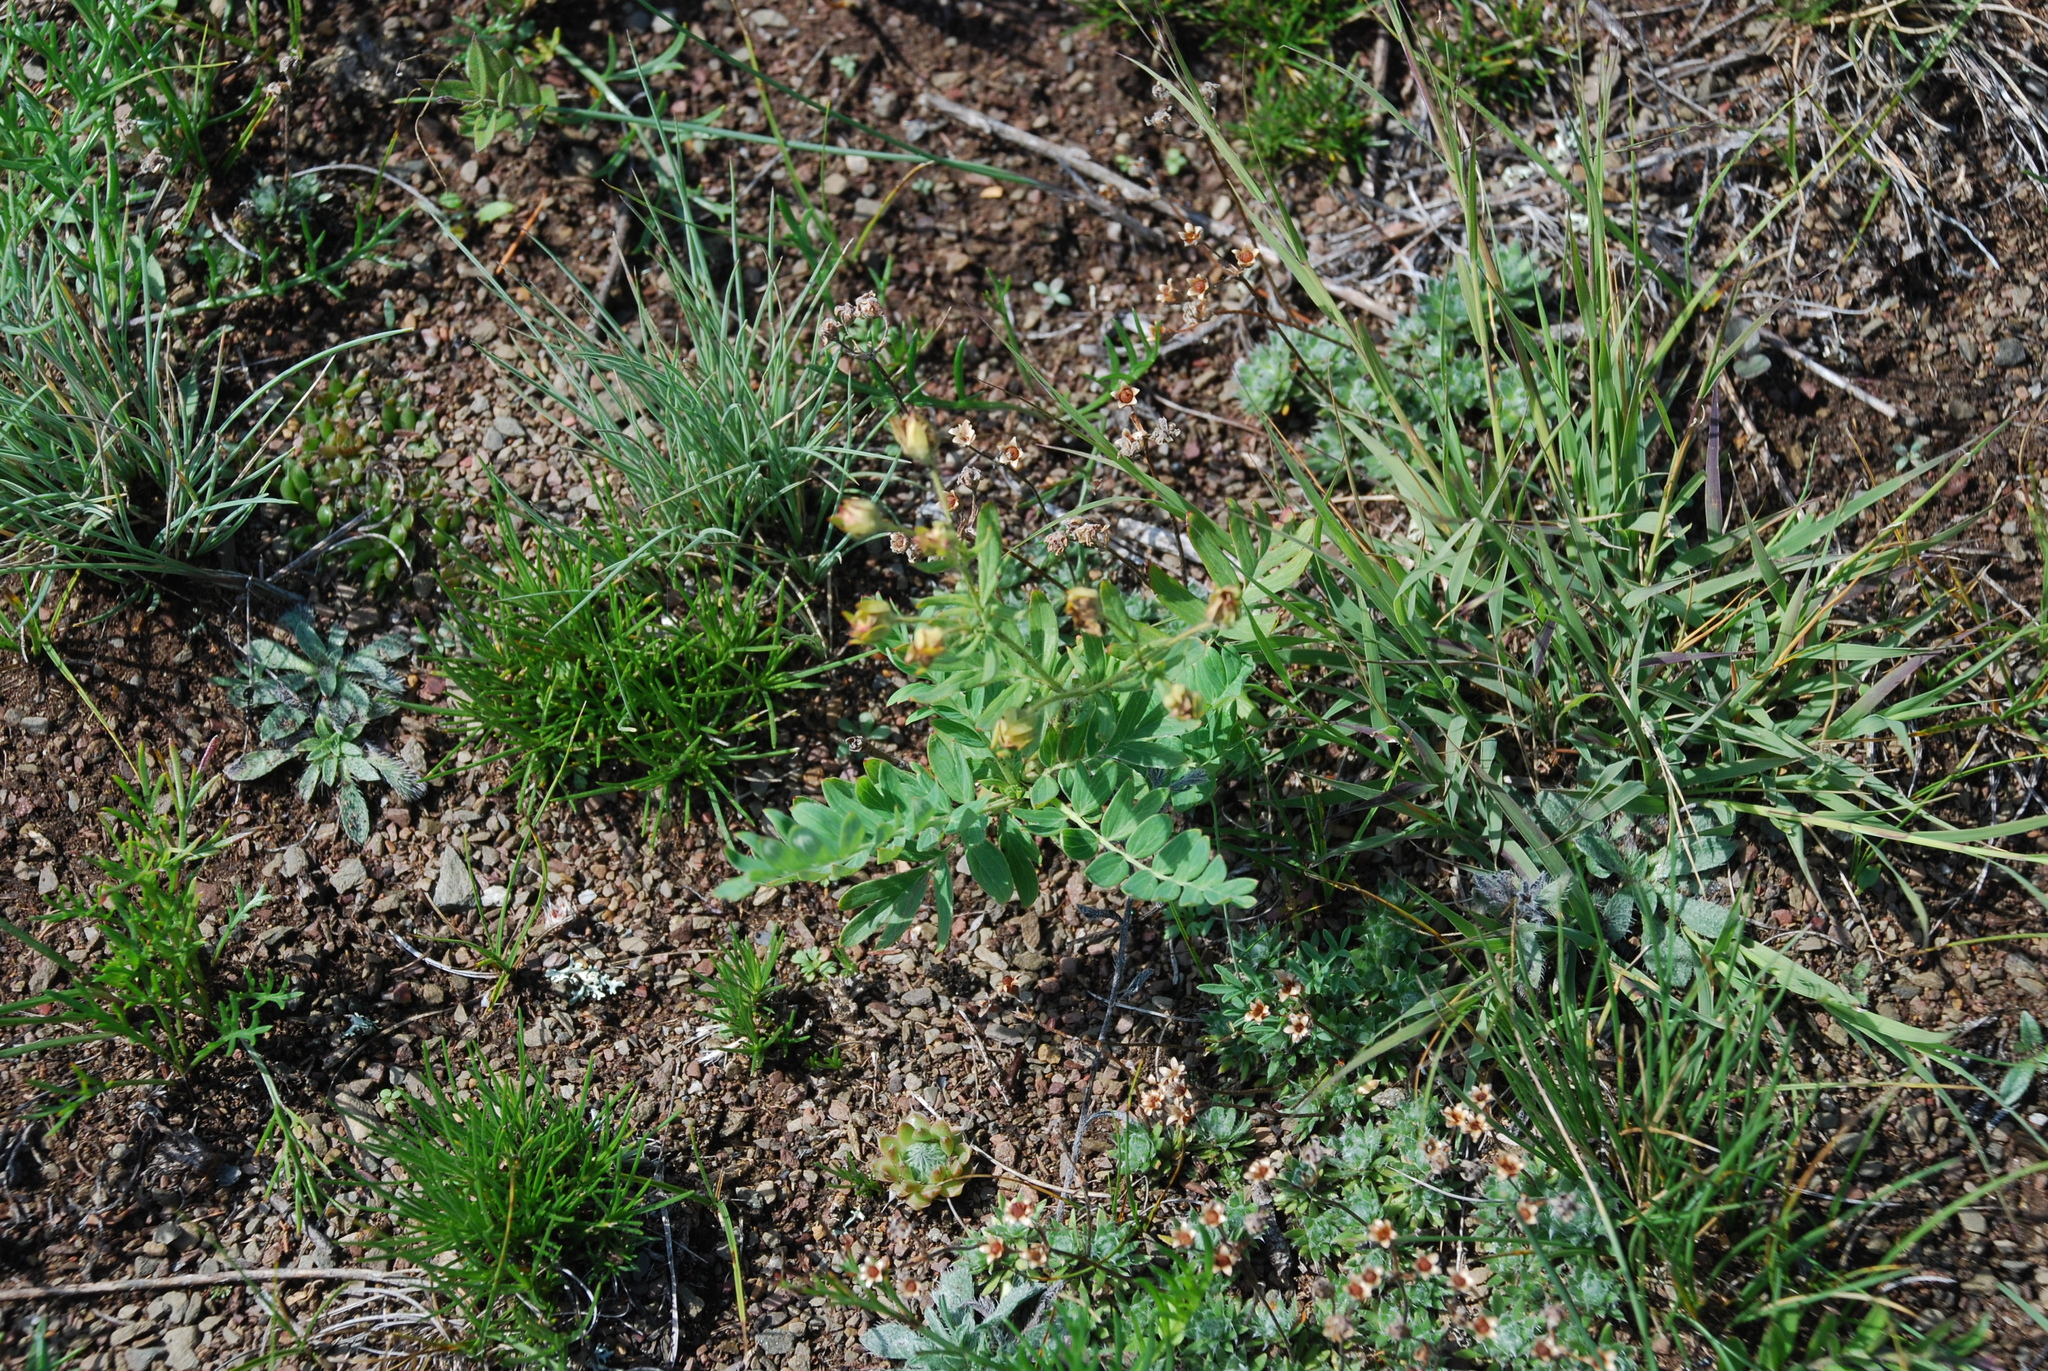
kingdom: Plantae
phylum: Tracheophyta
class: Magnoliopsida
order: Rosales
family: Rosaceae
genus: Sibbaldianthe
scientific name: Sibbaldianthe bifurca
